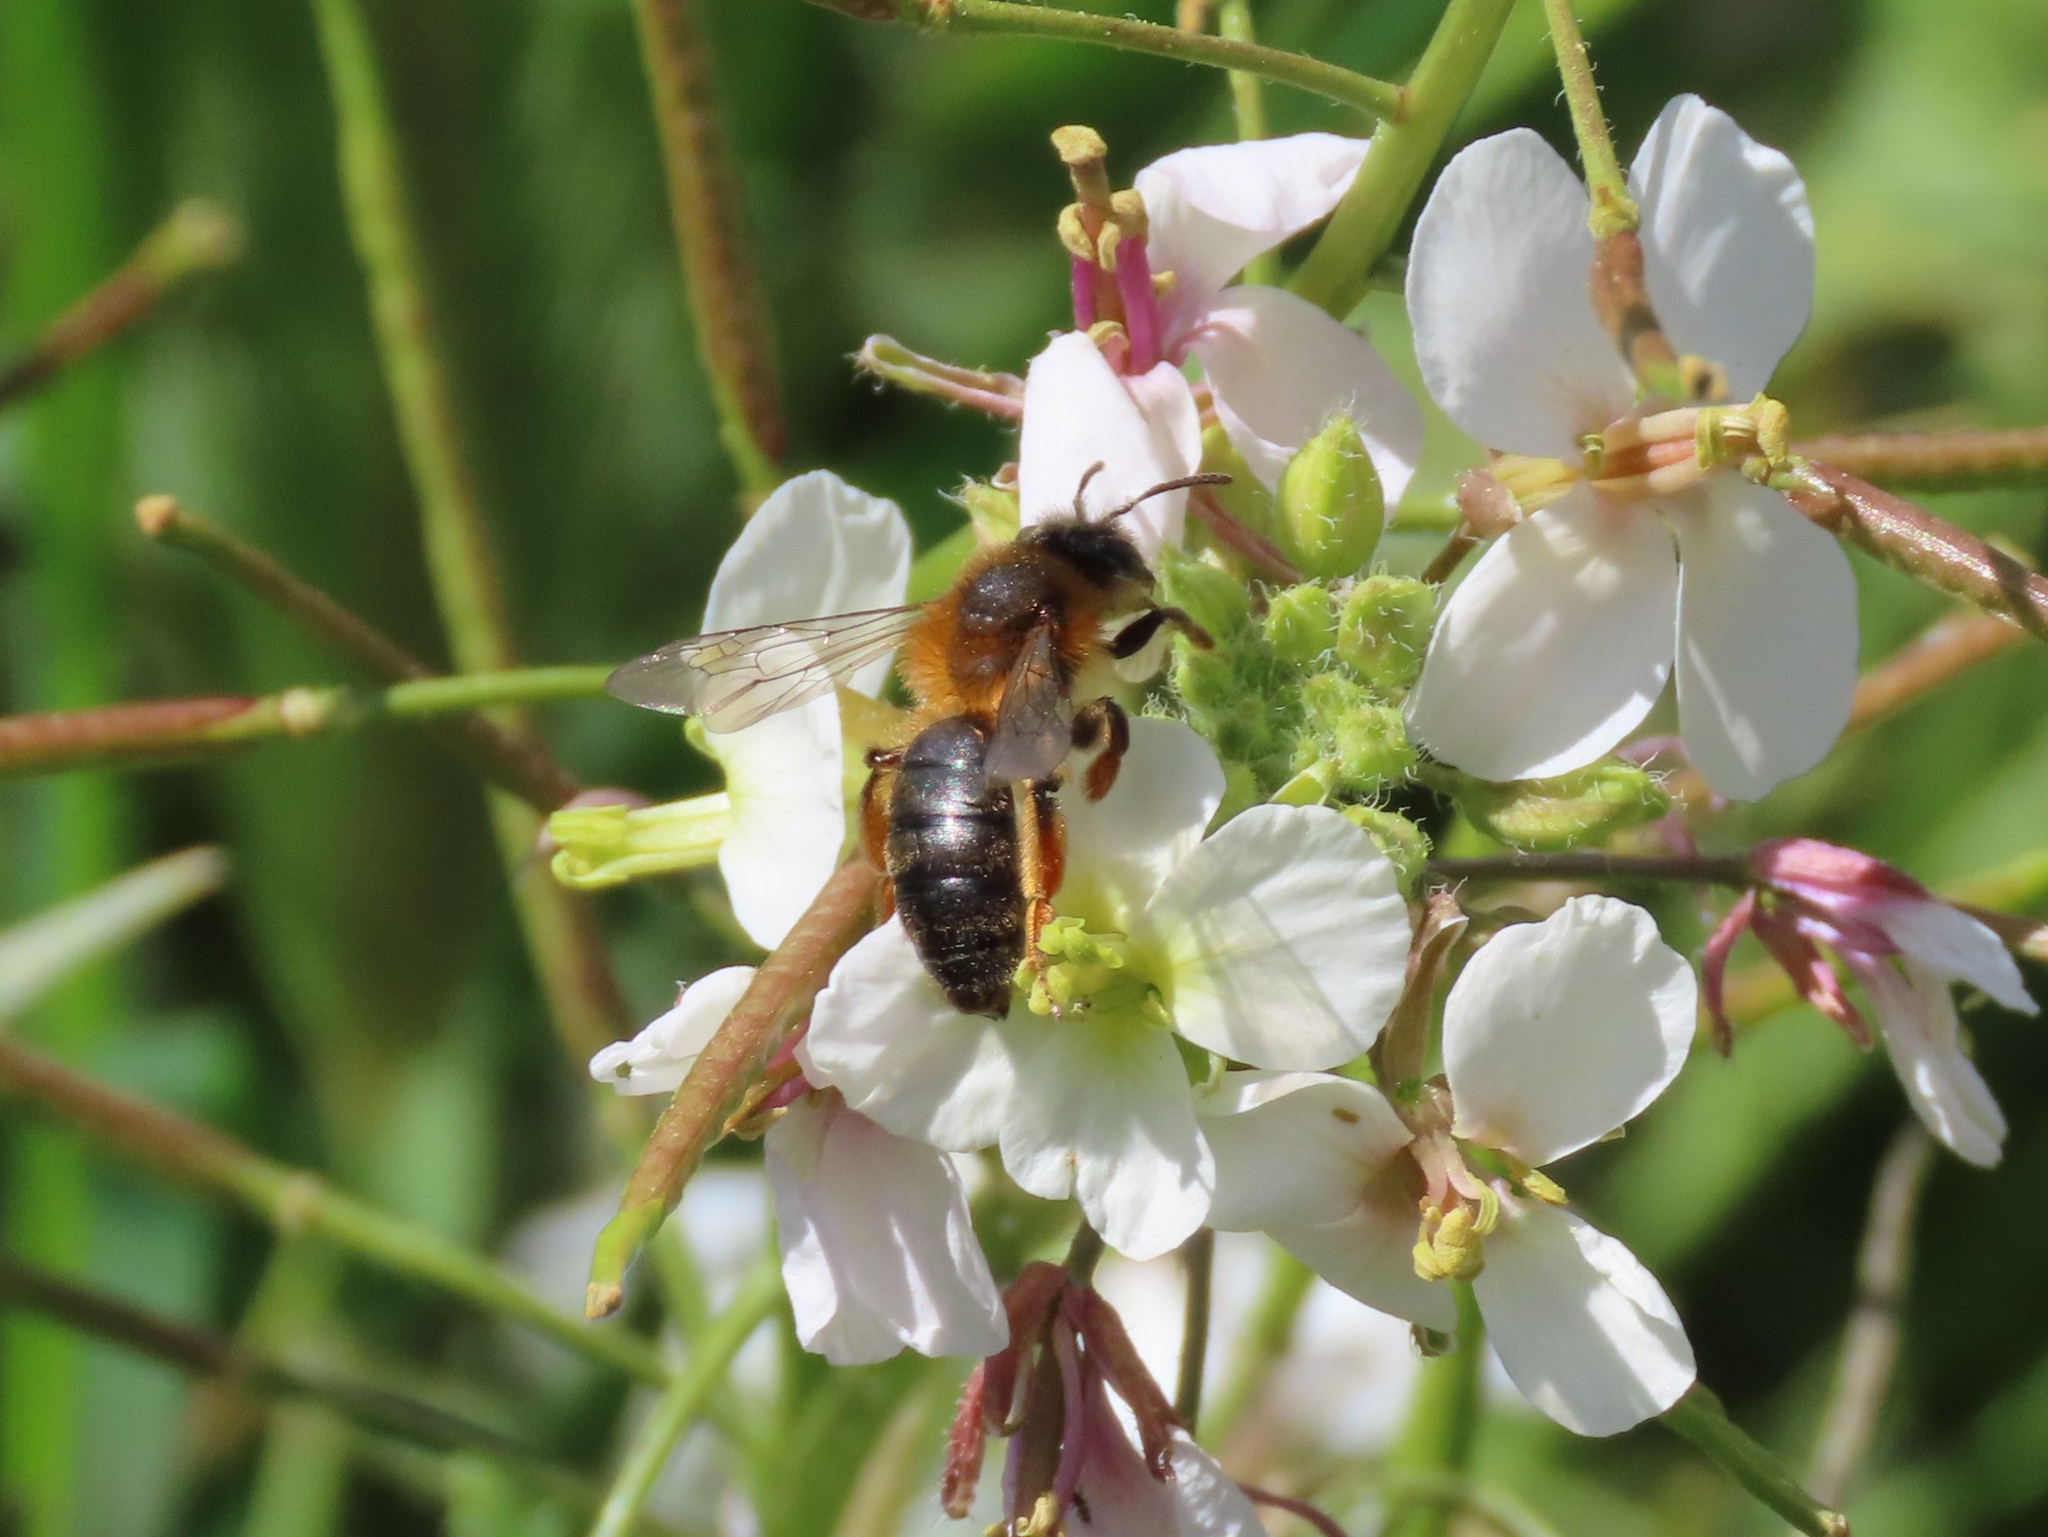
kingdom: Animalia
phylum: Arthropoda
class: Insecta
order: Hymenoptera
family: Andrenidae
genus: Andrena
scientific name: Andrena ferrugineicrus
